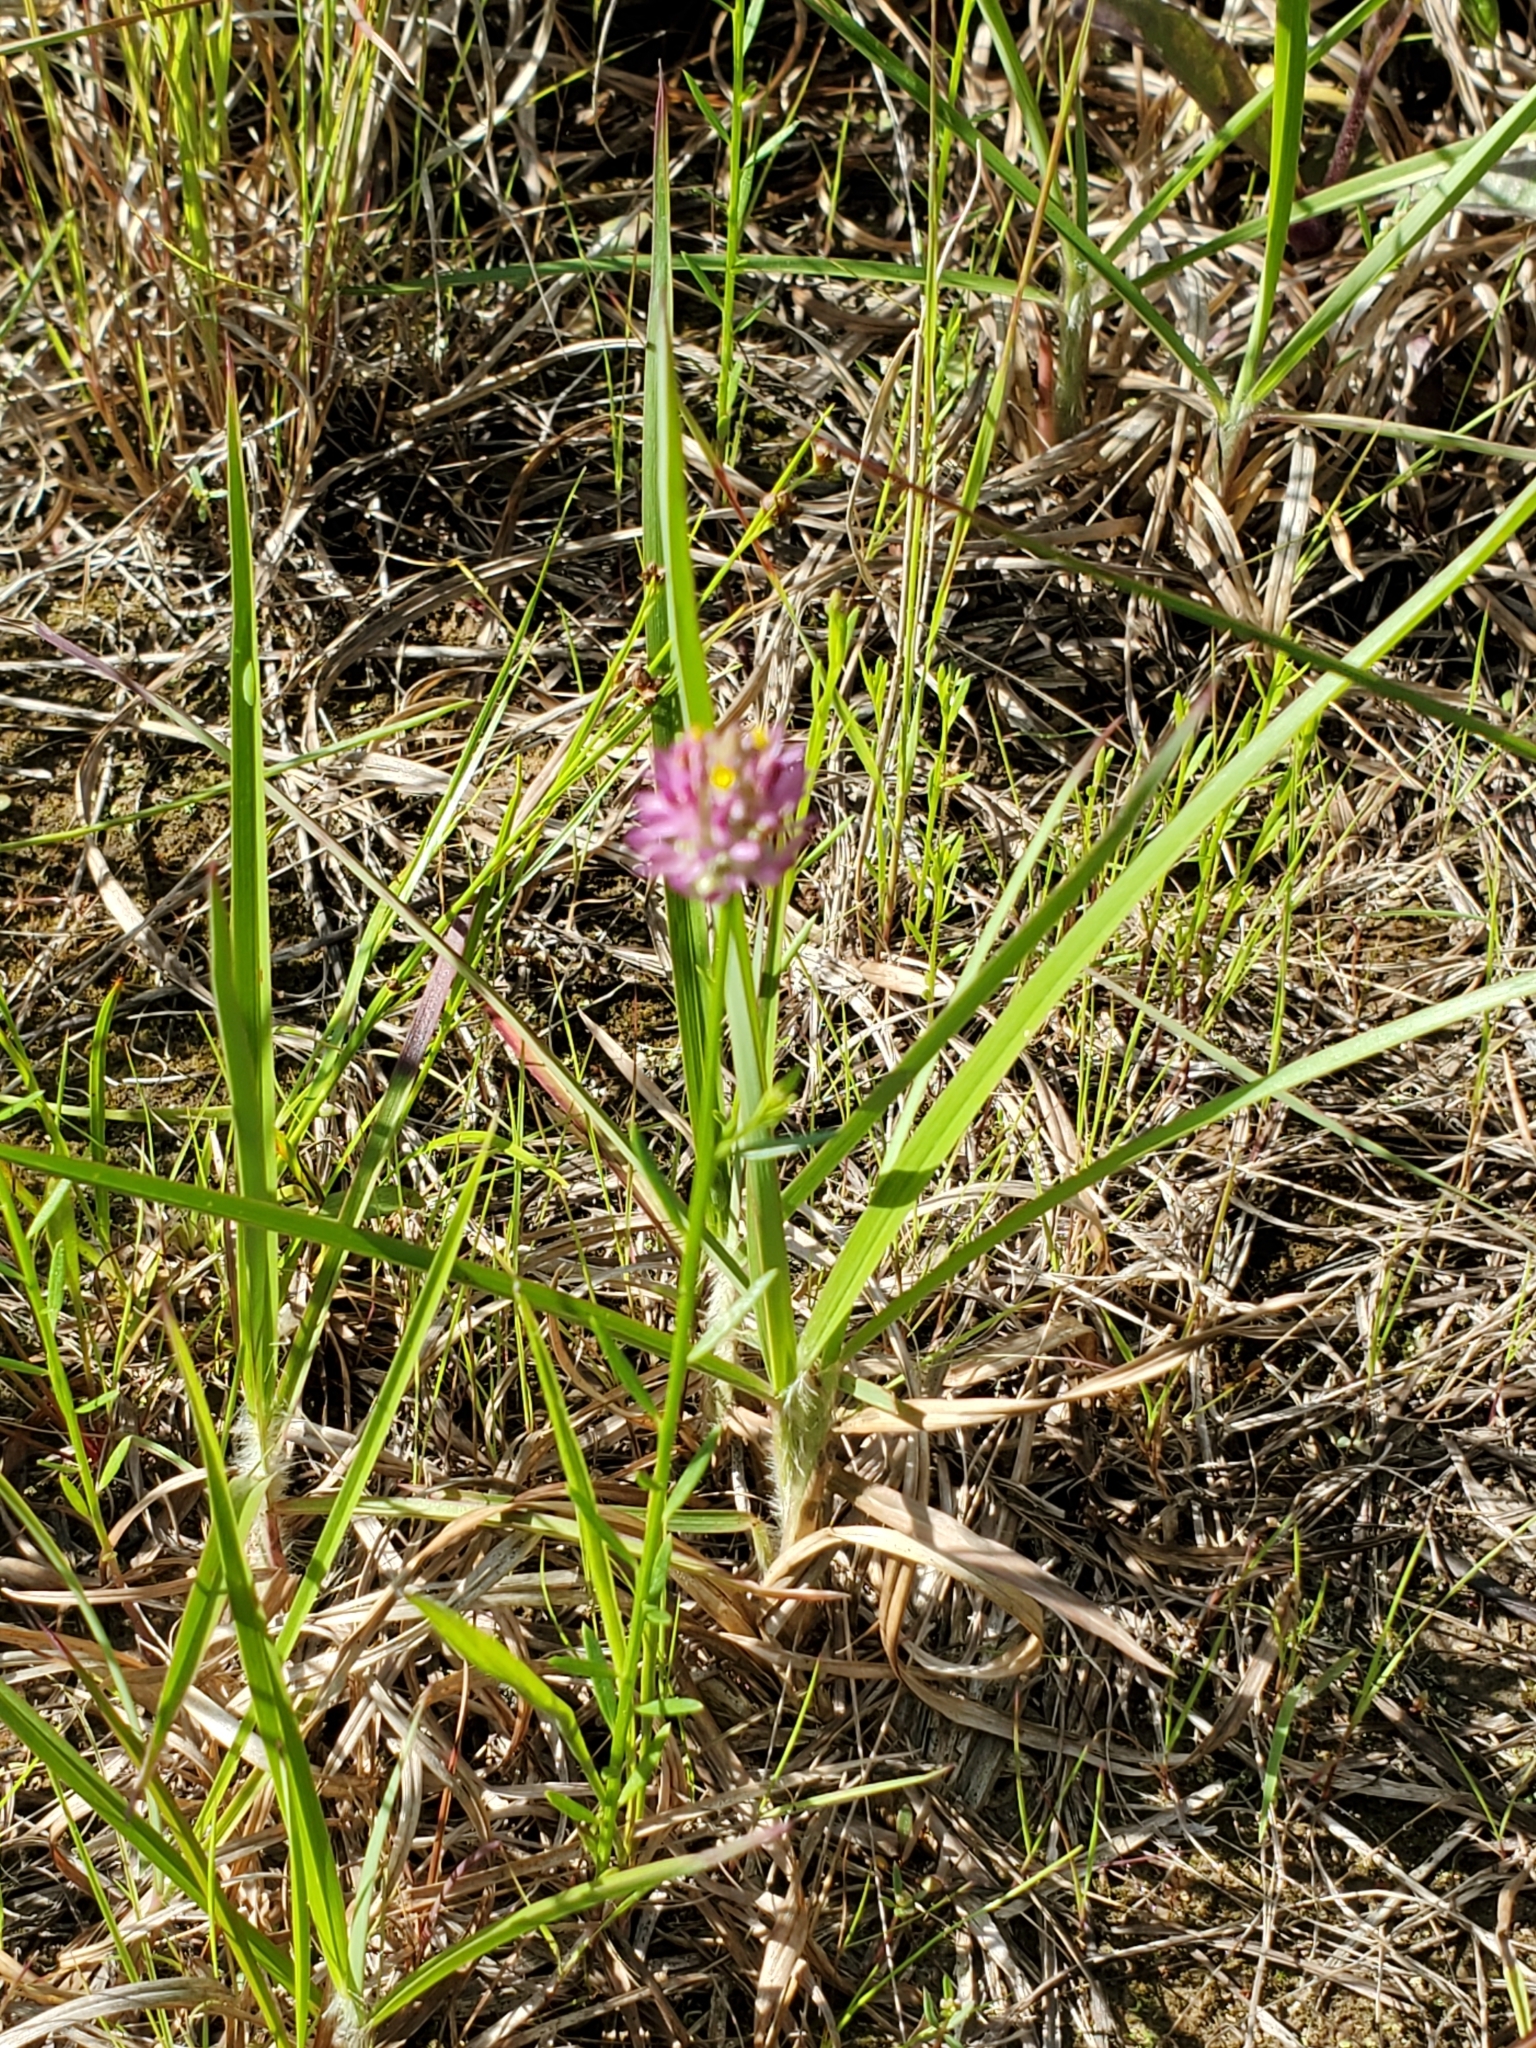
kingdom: Plantae
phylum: Tracheophyta
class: Magnoliopsida
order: Fabales
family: Polygalaceae
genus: Polygala
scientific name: Polygala mariana
